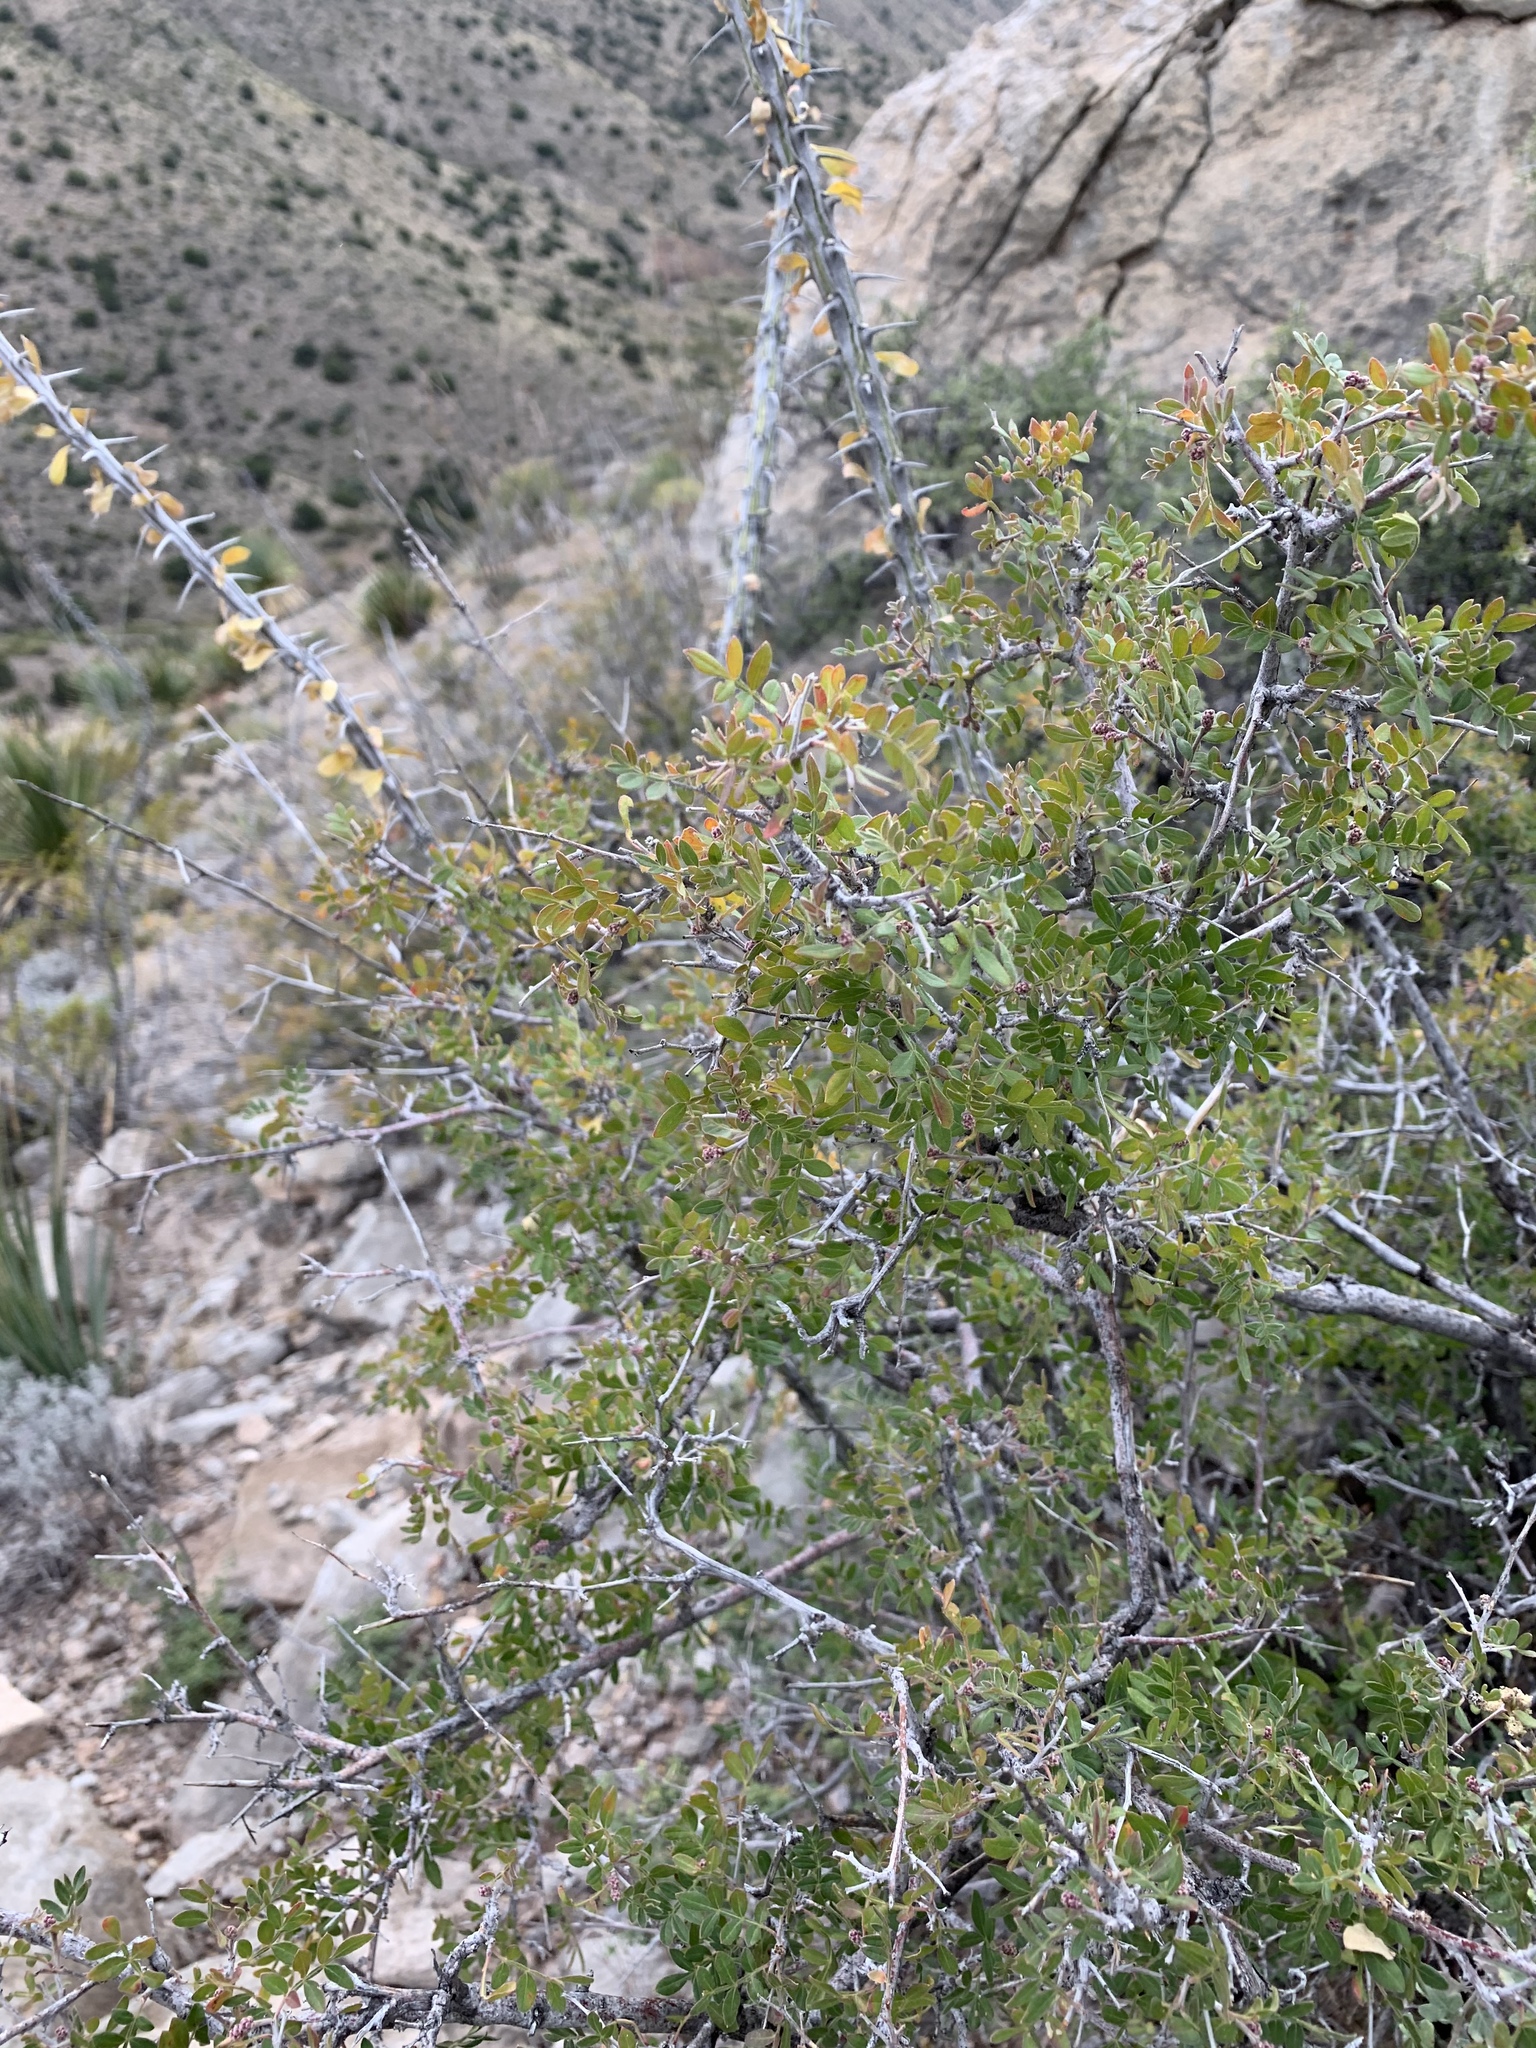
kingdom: Plantae
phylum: Tracheophyta
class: Magnoliopsida
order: Sapindales
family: Anacardiaceae
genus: Rhus
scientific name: Rhus microphylla
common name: Desert sumac
